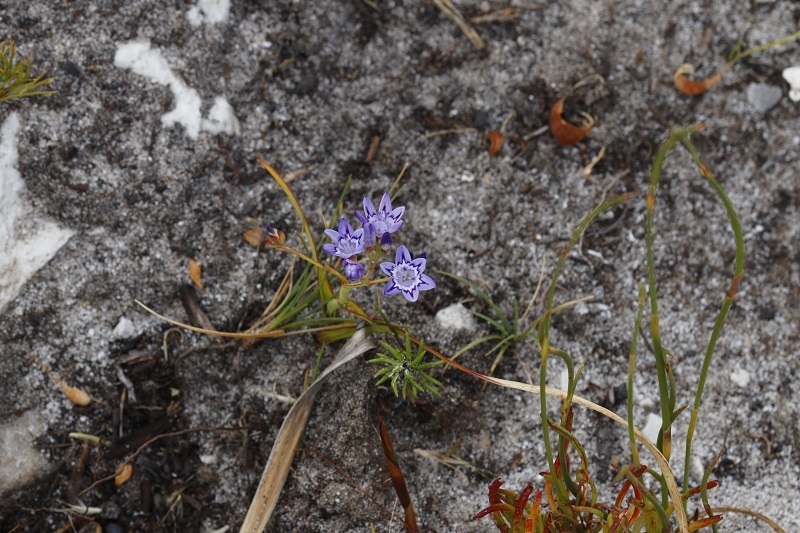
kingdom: Plantae
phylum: Tracheophyta
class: Liliopsida
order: Asparagales
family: Iridaceae
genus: Codonorhiza
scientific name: Codonorhiza corymbosa
